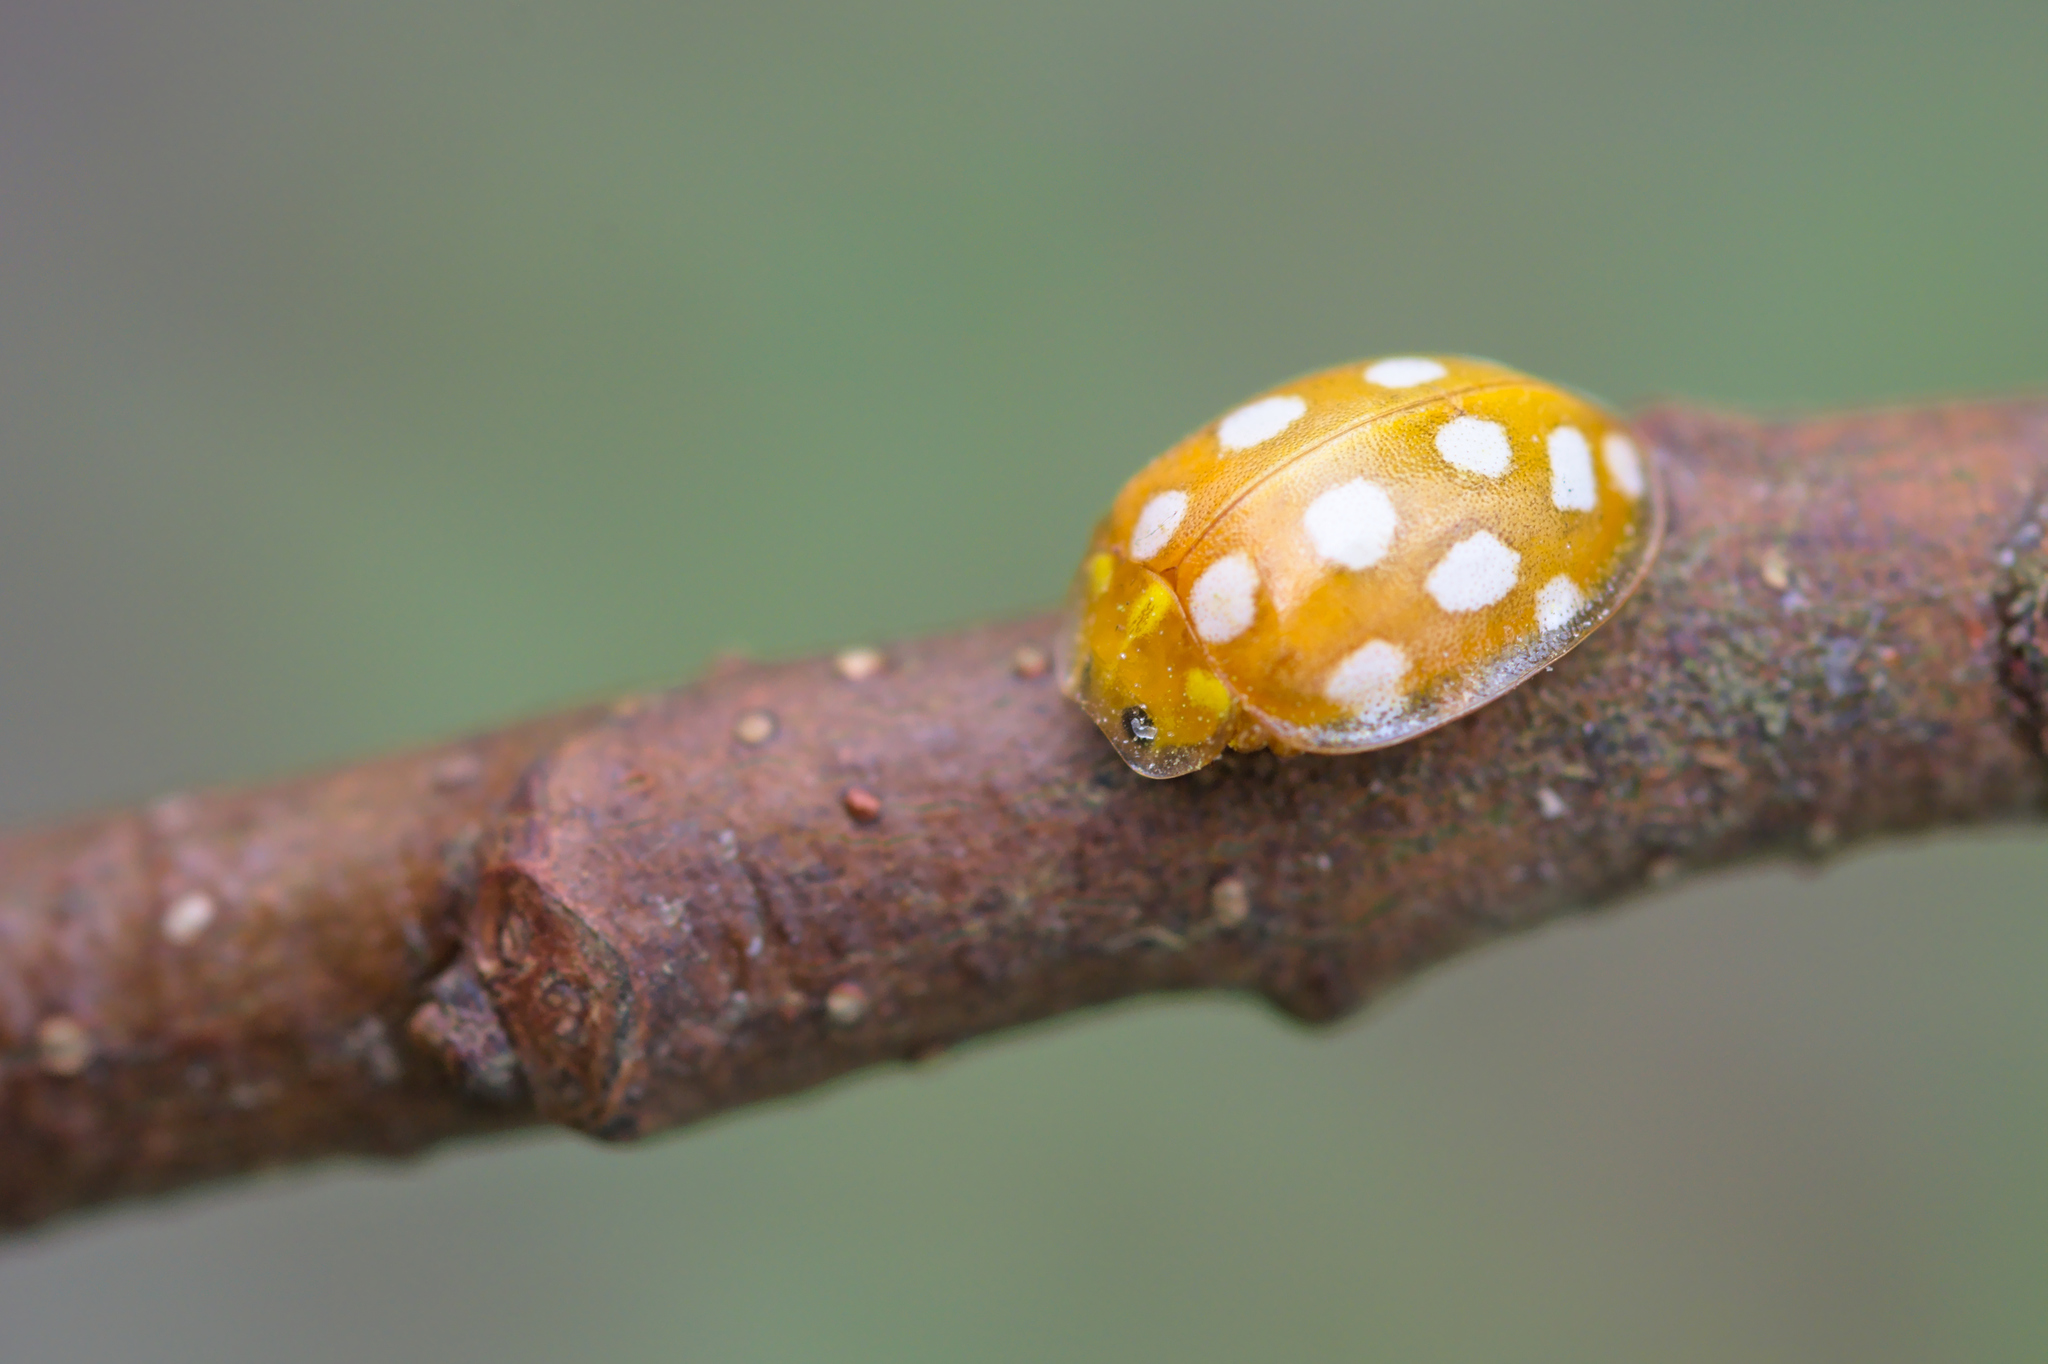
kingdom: Animalia
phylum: Arthropoda
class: Insecta
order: Coleoptera
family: Coccinellidae
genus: Halyzia
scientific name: Halyzia sedecimguttata
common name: Orange ladybird
